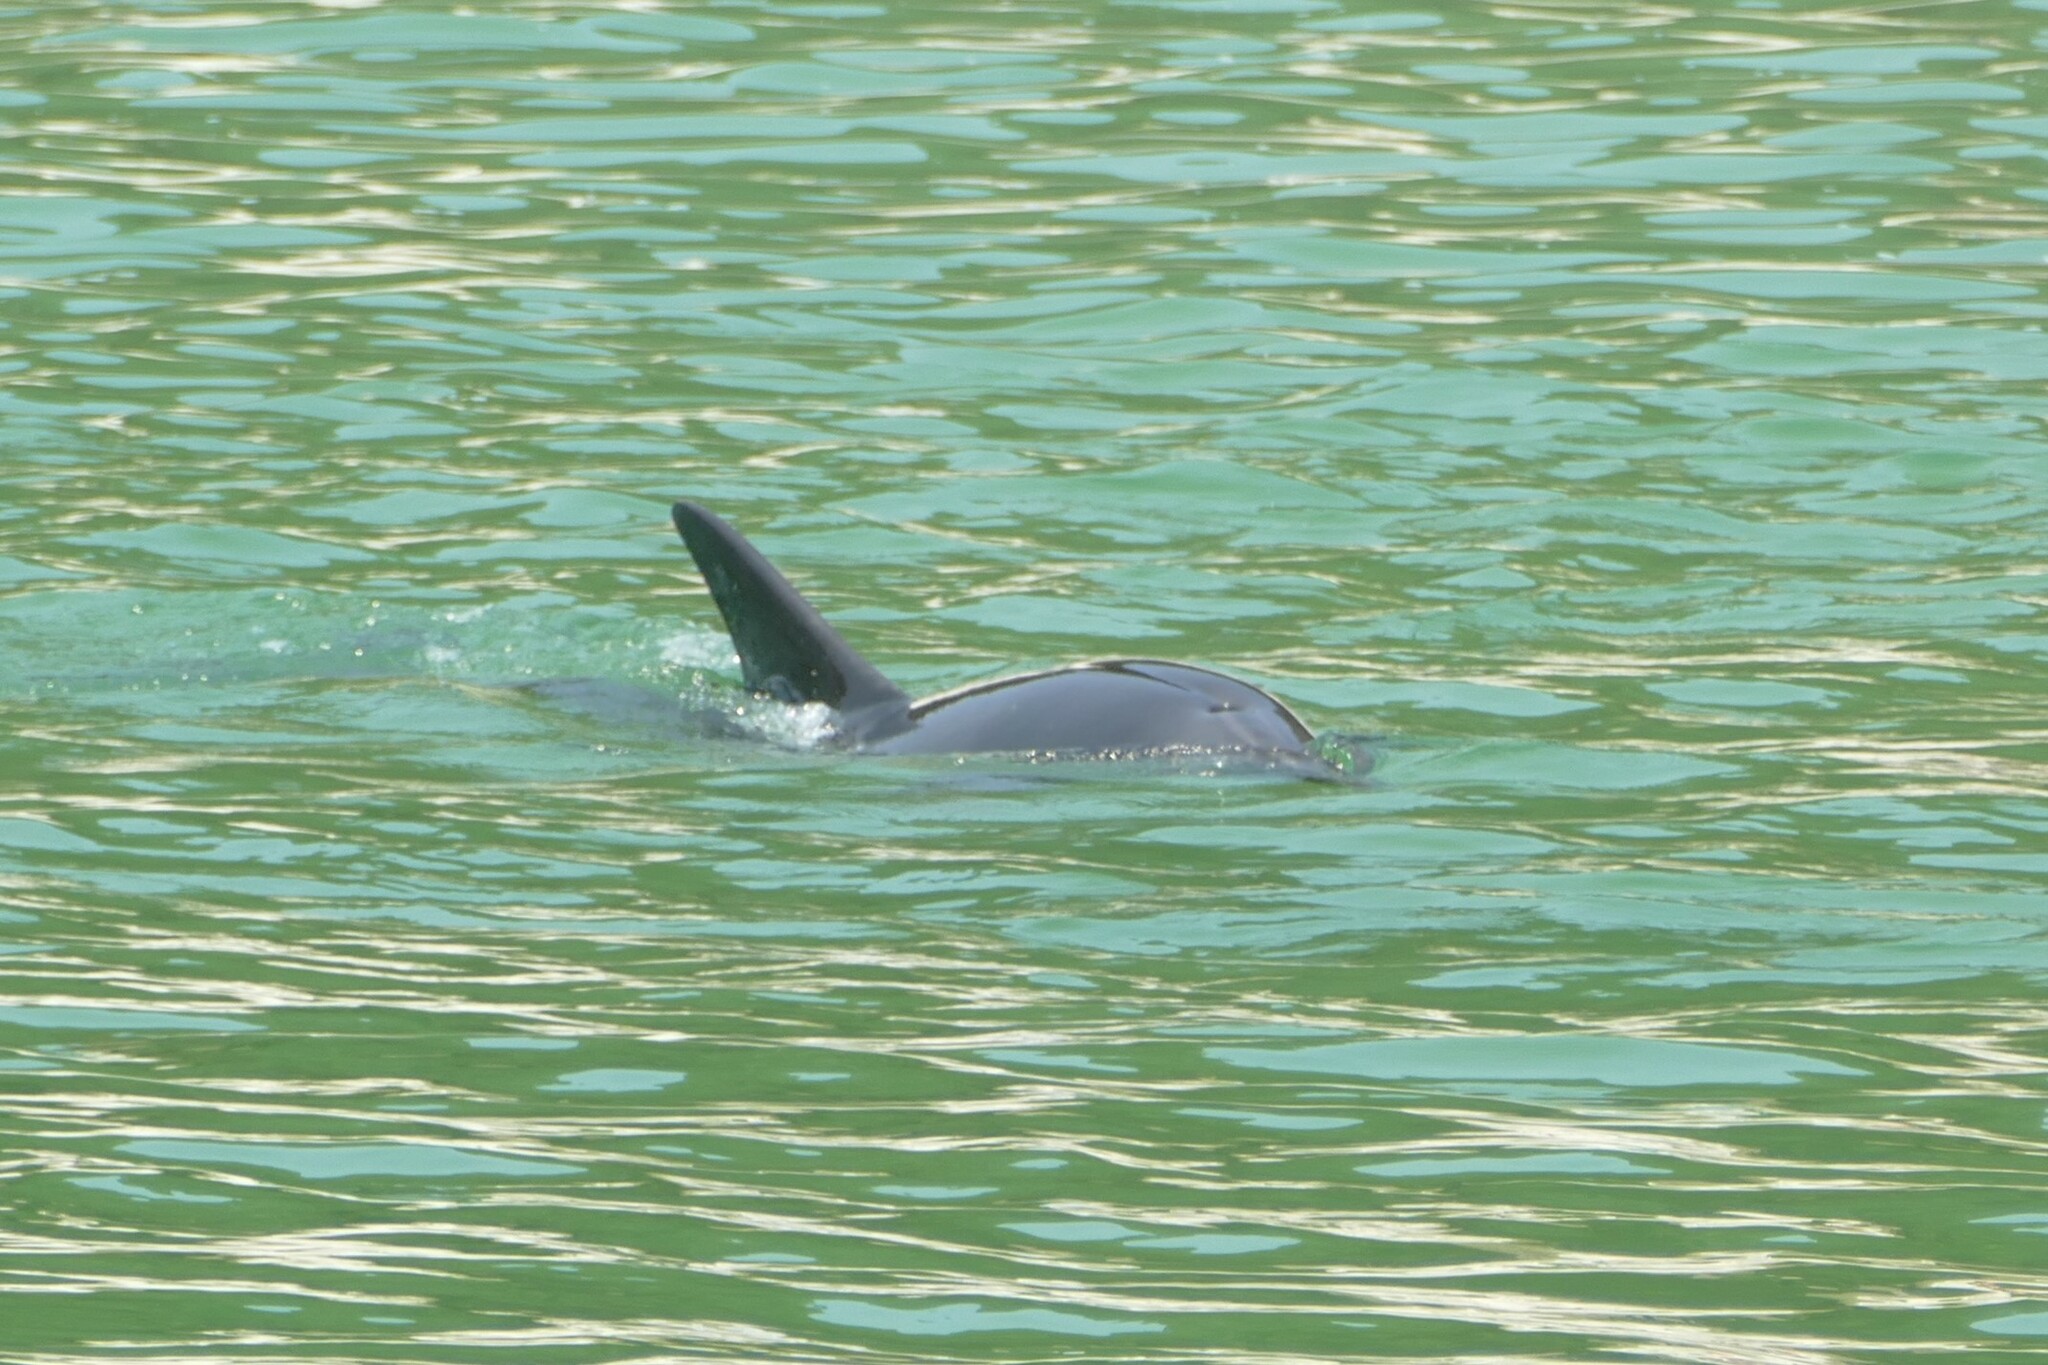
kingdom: Animalia
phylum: Chordata
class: Mammalia
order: Cetacea
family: Delphinidae
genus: Tursiops
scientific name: Tursiops truncatus
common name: Bottlenose dolphin
